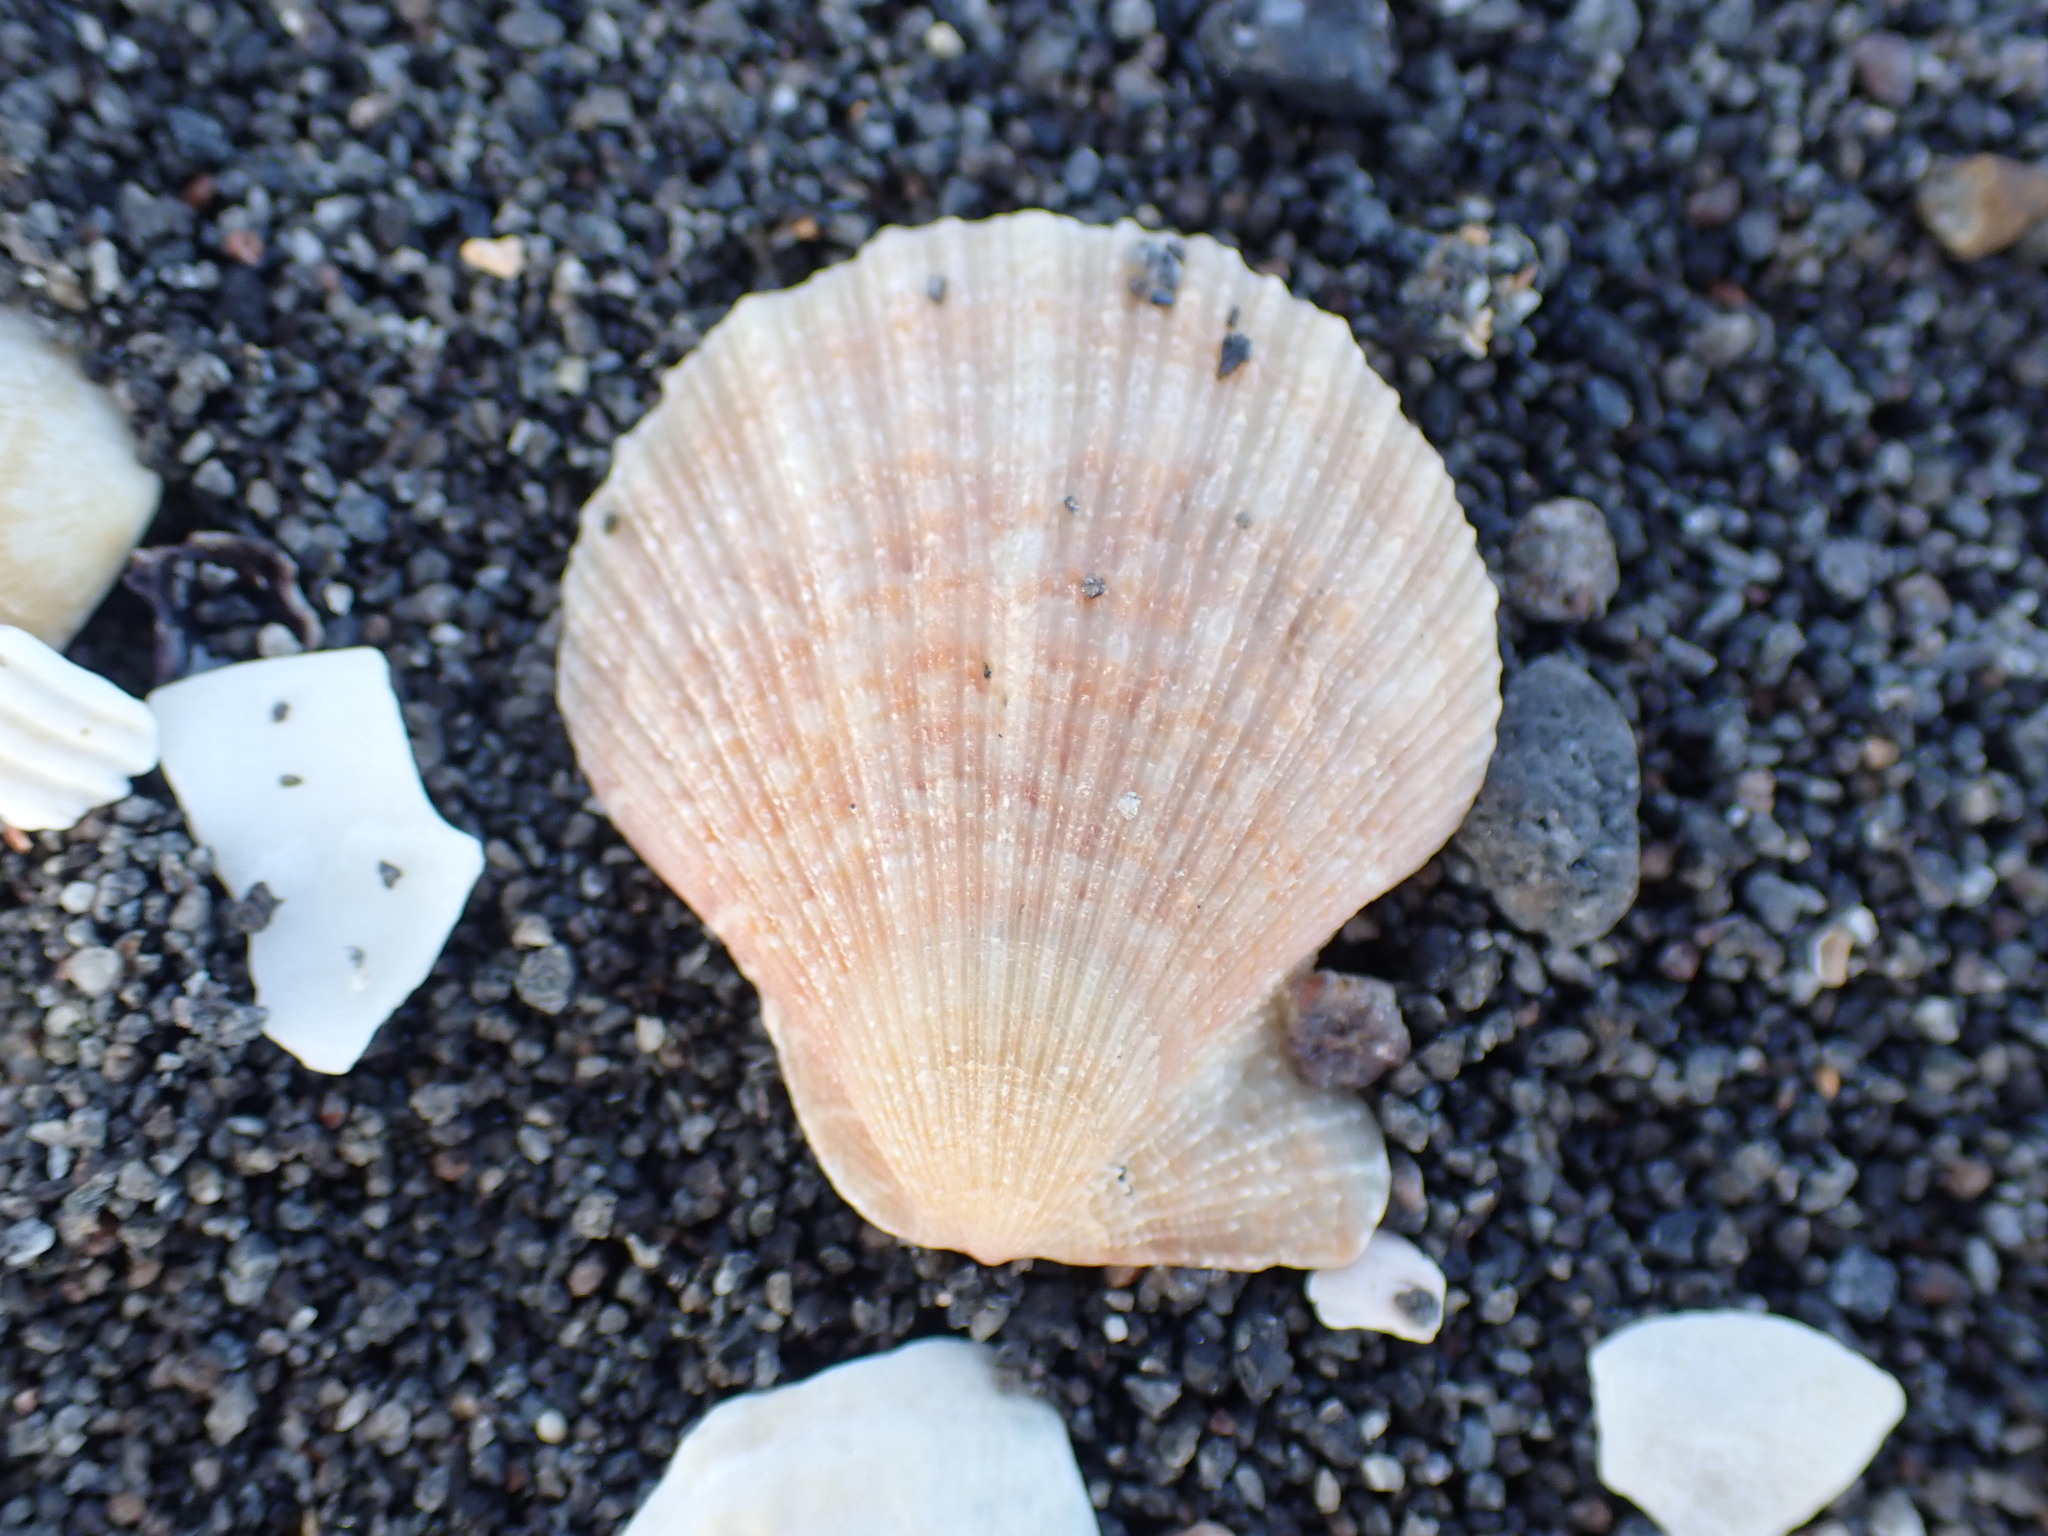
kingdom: Animalia
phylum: Mollusca
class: Bivalvia
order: Pectinida
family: Pectinidae
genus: Talochlamys
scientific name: Talochlamys zelandiae
